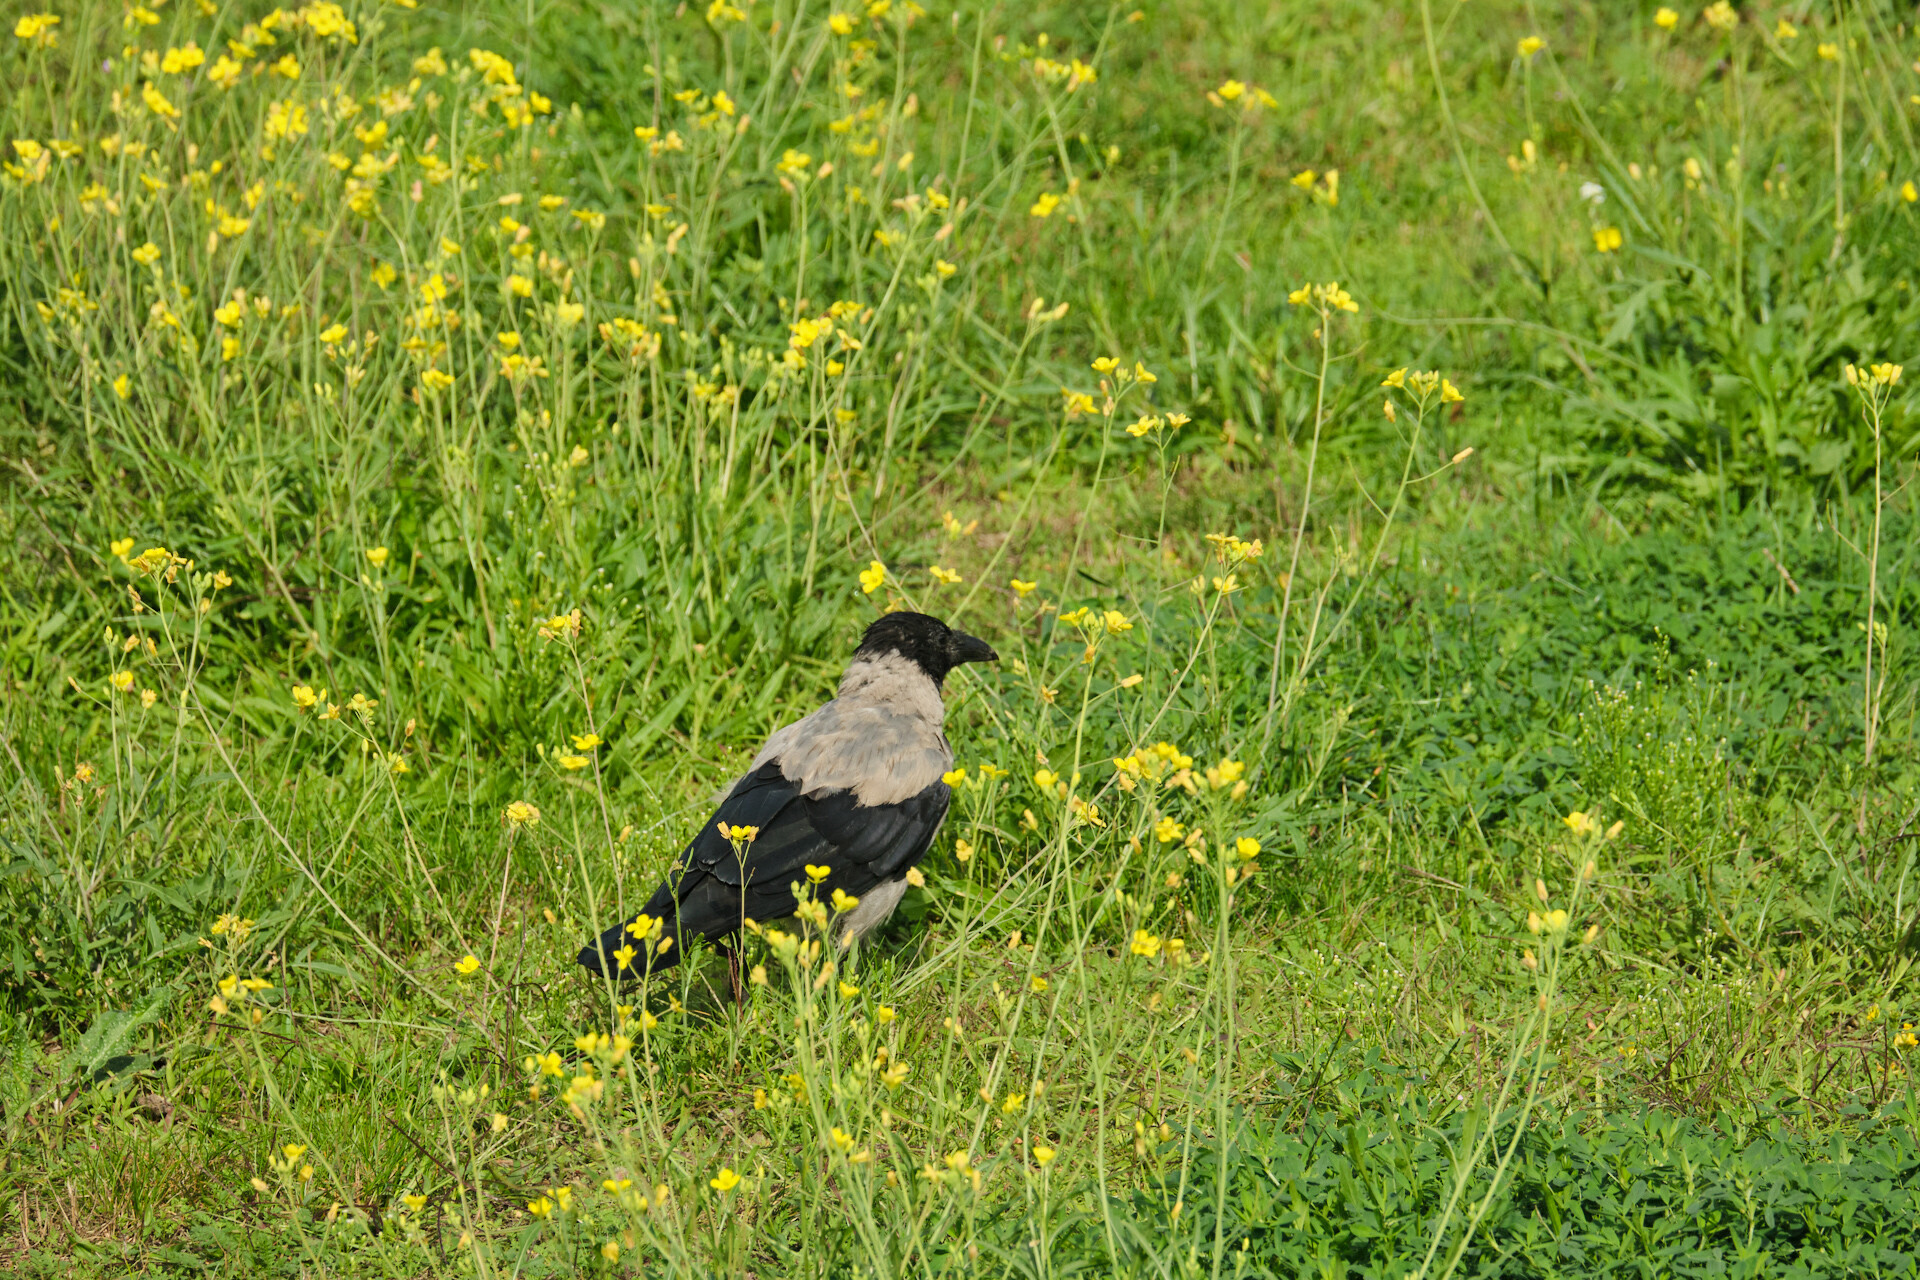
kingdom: Animalia
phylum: Chordata
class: Aves
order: Passeriformes
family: Corvidae
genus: Corvus
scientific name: Corvus cornix
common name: Hooded crow
